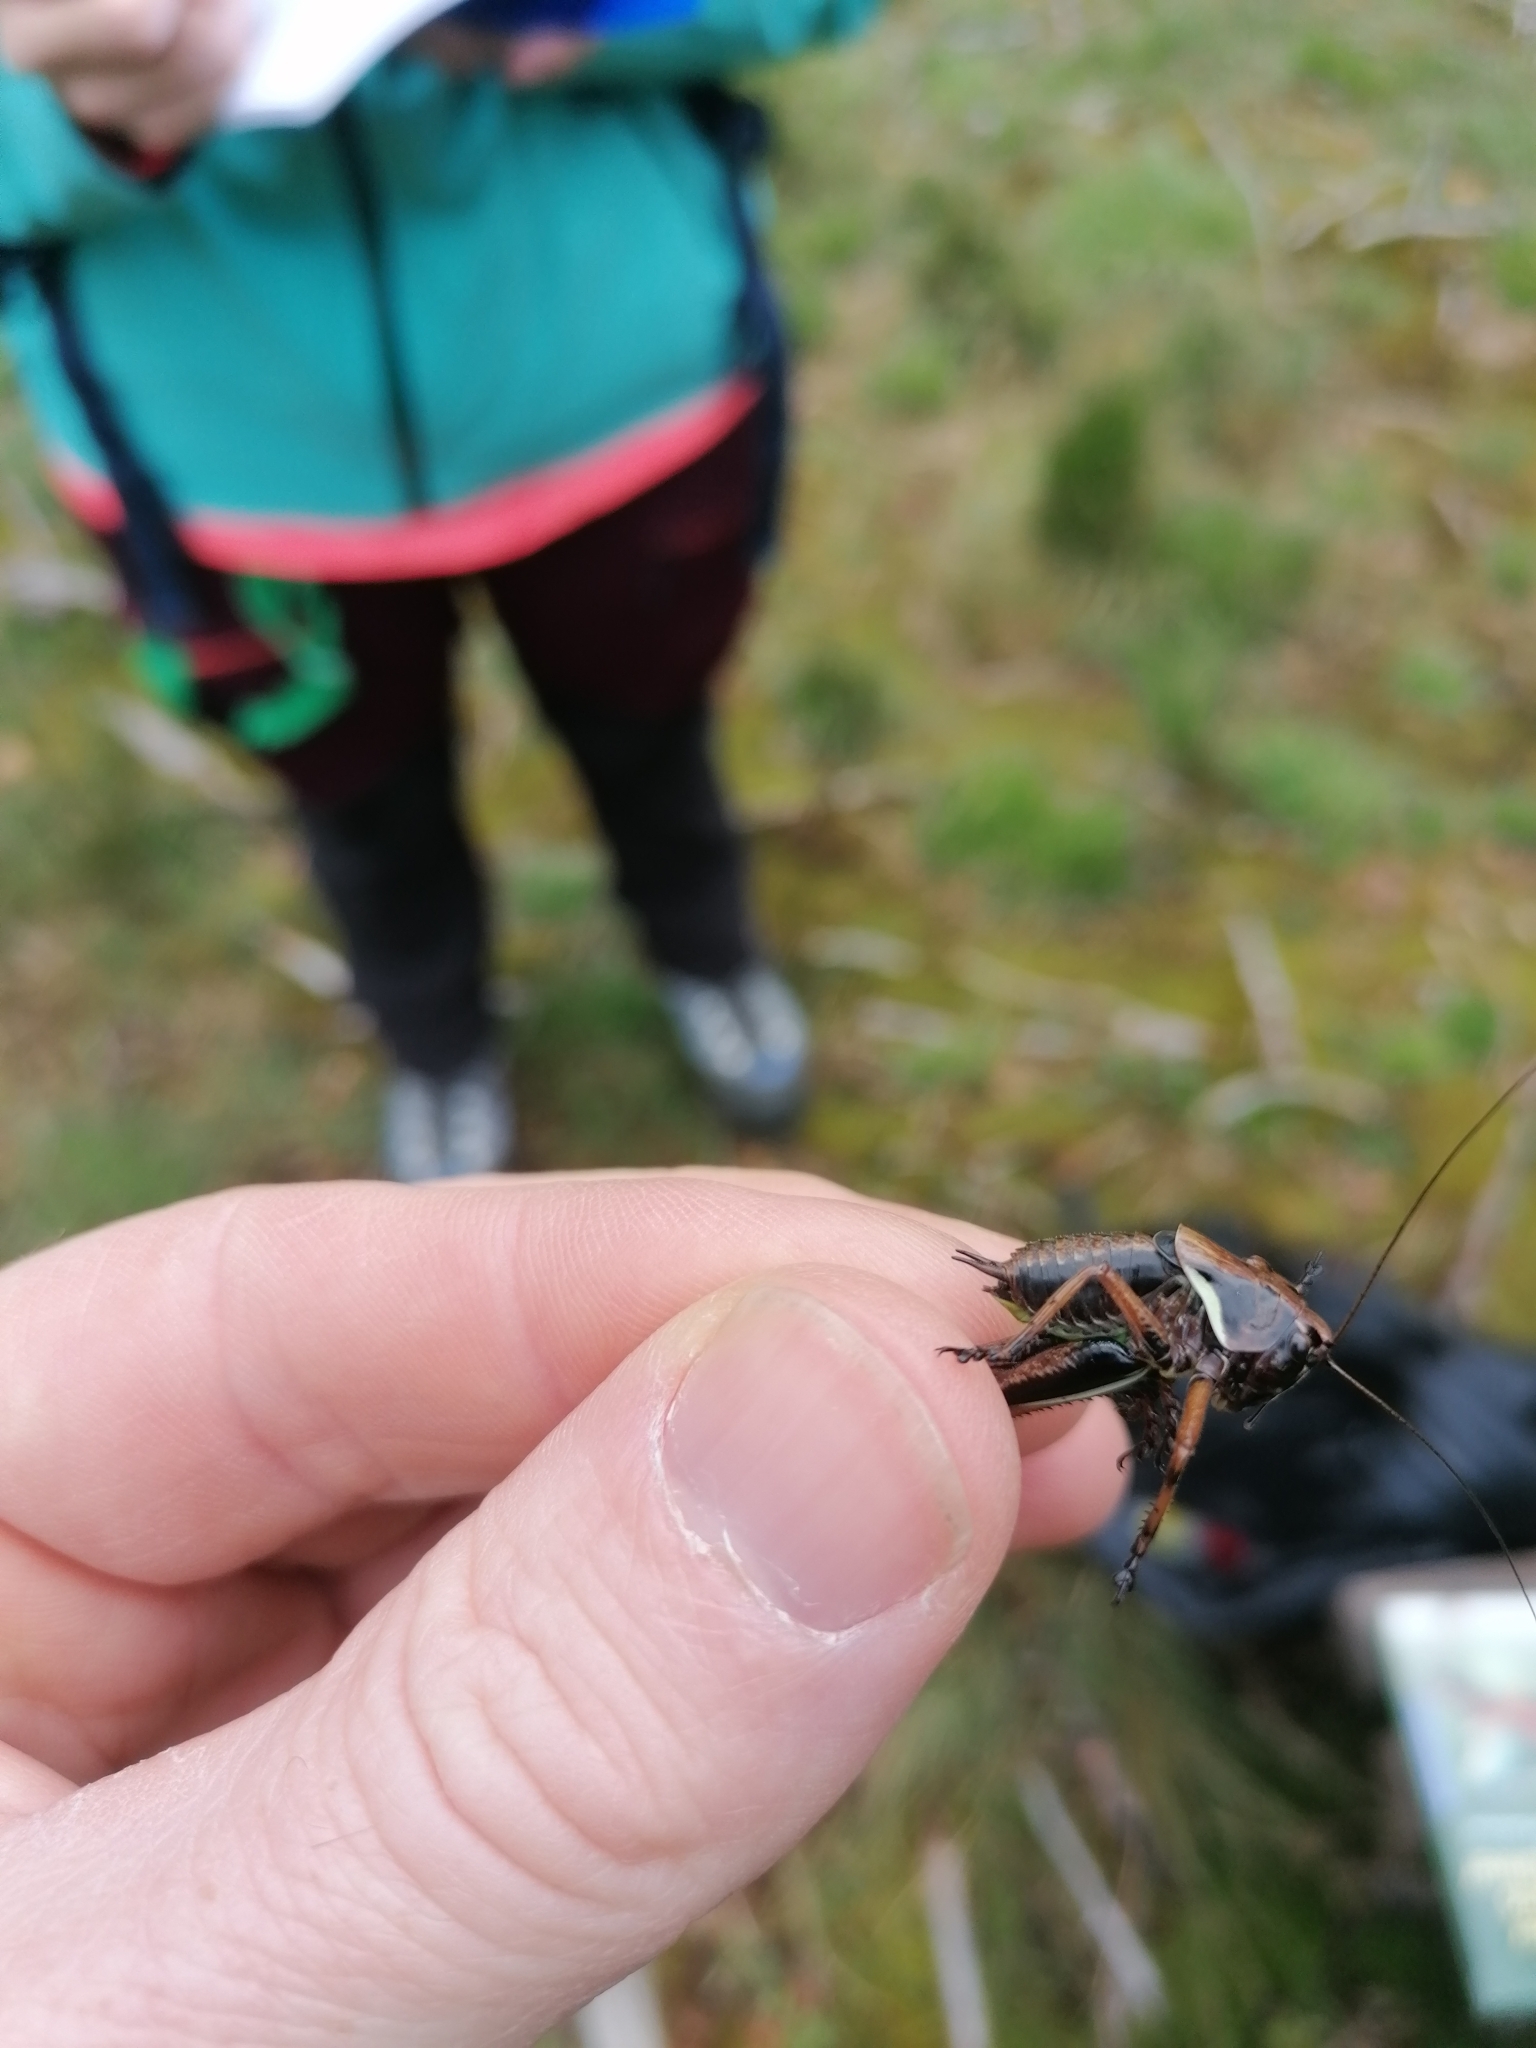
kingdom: Animalia
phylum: Arthropoda
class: Insecta
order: Orthoptera
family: Tettigoniidae
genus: Pholidoptera
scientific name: Pholidoptera aptera
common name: Alpine dark bush-cricket
